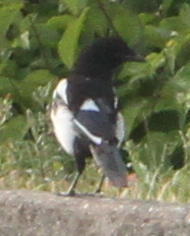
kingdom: Animalia
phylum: Chordata
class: Aves
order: Passeriformes
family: Corvidae
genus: Pica
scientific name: Pica pica
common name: Eurasian magpie
